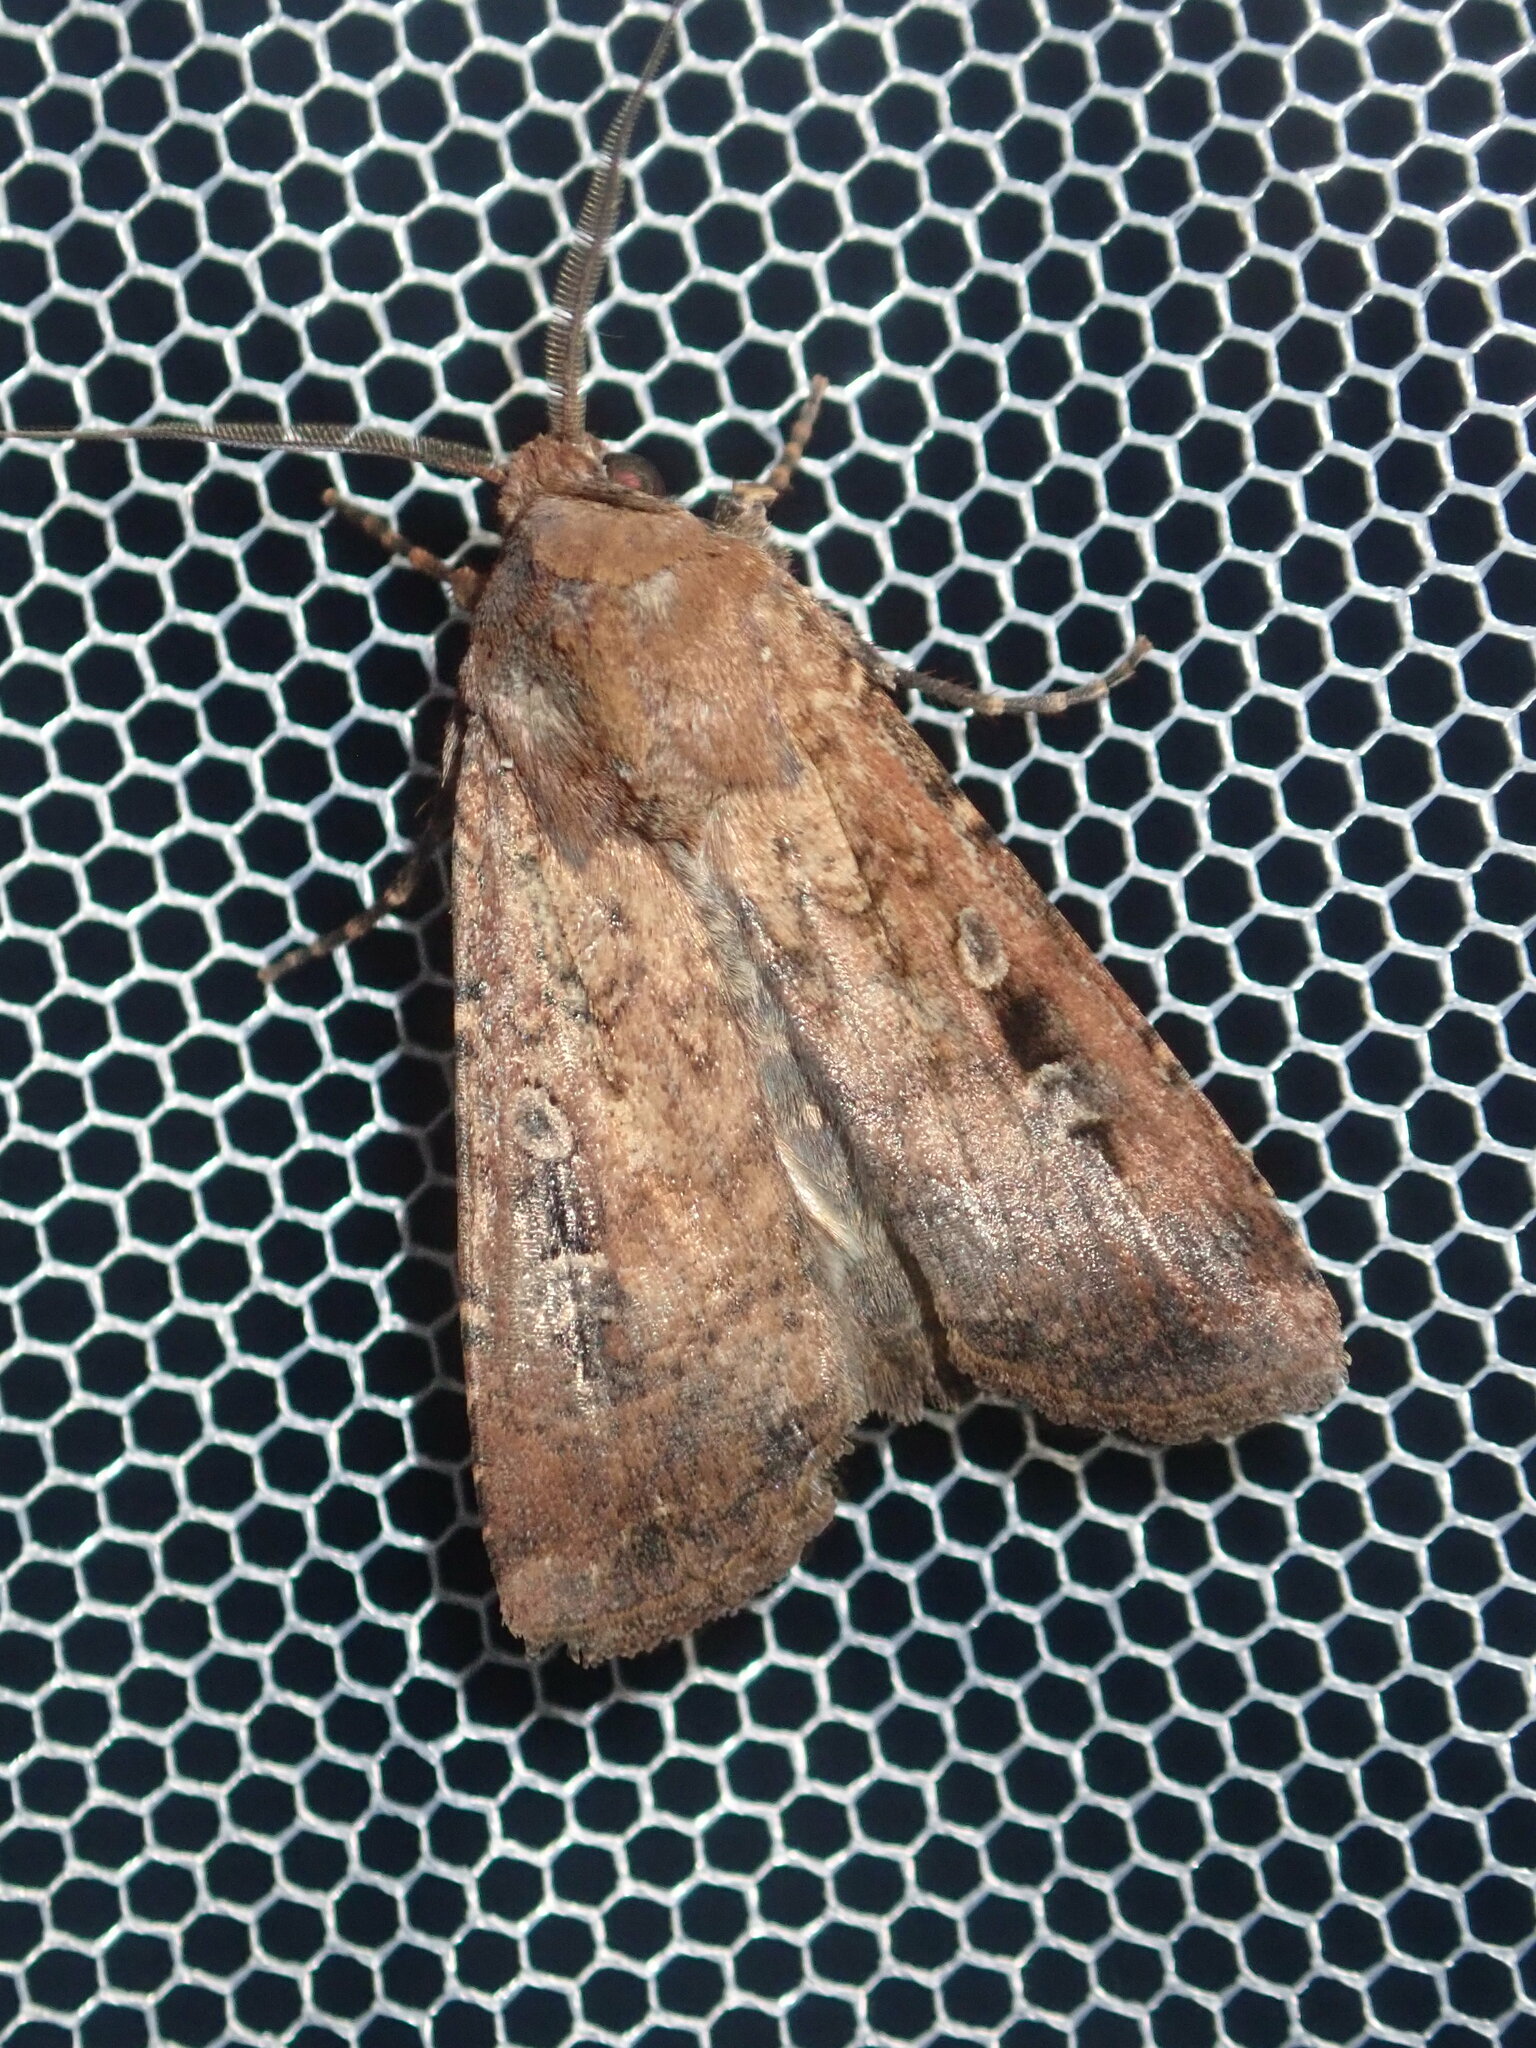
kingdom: Animalia
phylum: Arthropoda
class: Insecta
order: Lepidoptera
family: Noctuidae
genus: Agrotis
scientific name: Agrotis infusa
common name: Bogong moth
